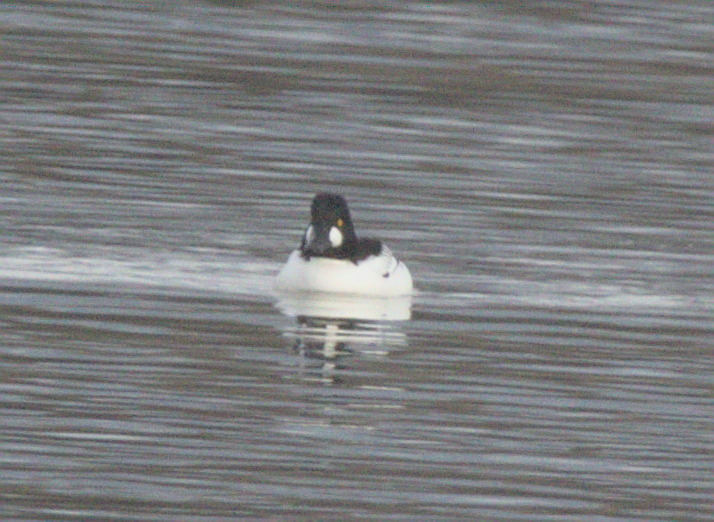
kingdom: Animalia
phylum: Chordata
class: Aves
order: Anseriformes
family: Anatidae
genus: Bucephala
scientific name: Bucephala clangula
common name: Common goldeneye
